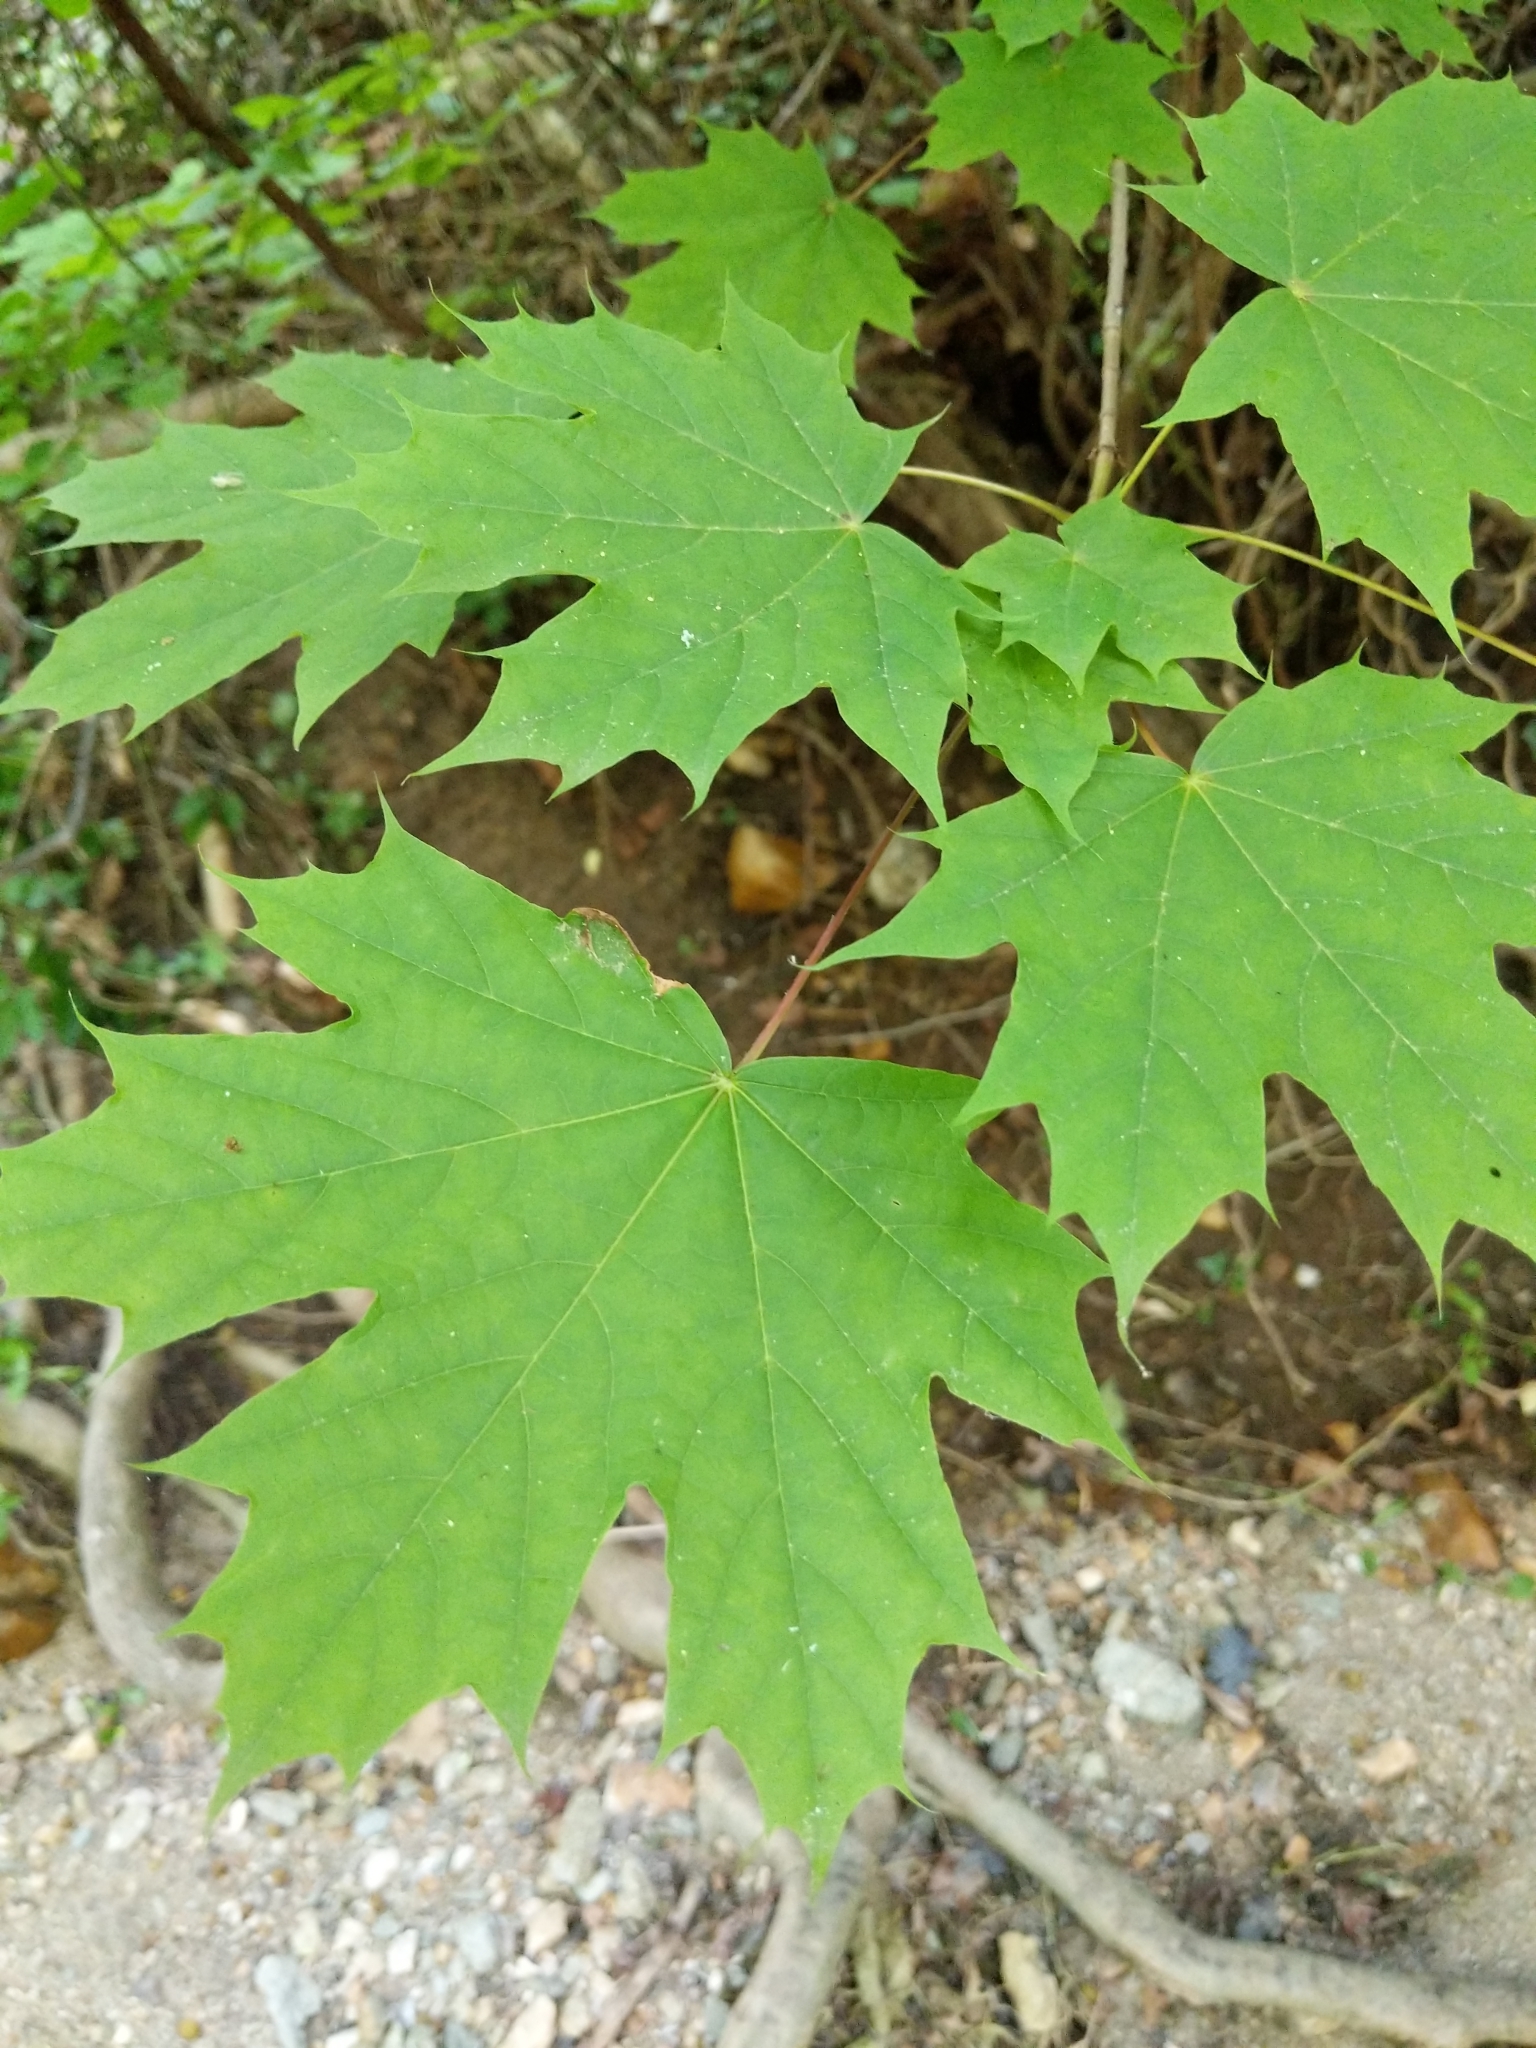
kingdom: Plantae
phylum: Tracheophyta
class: Magnoliopsida
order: Sapindales
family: Sapindaceae
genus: Acer
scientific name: Acer platanoides
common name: Norway maple
